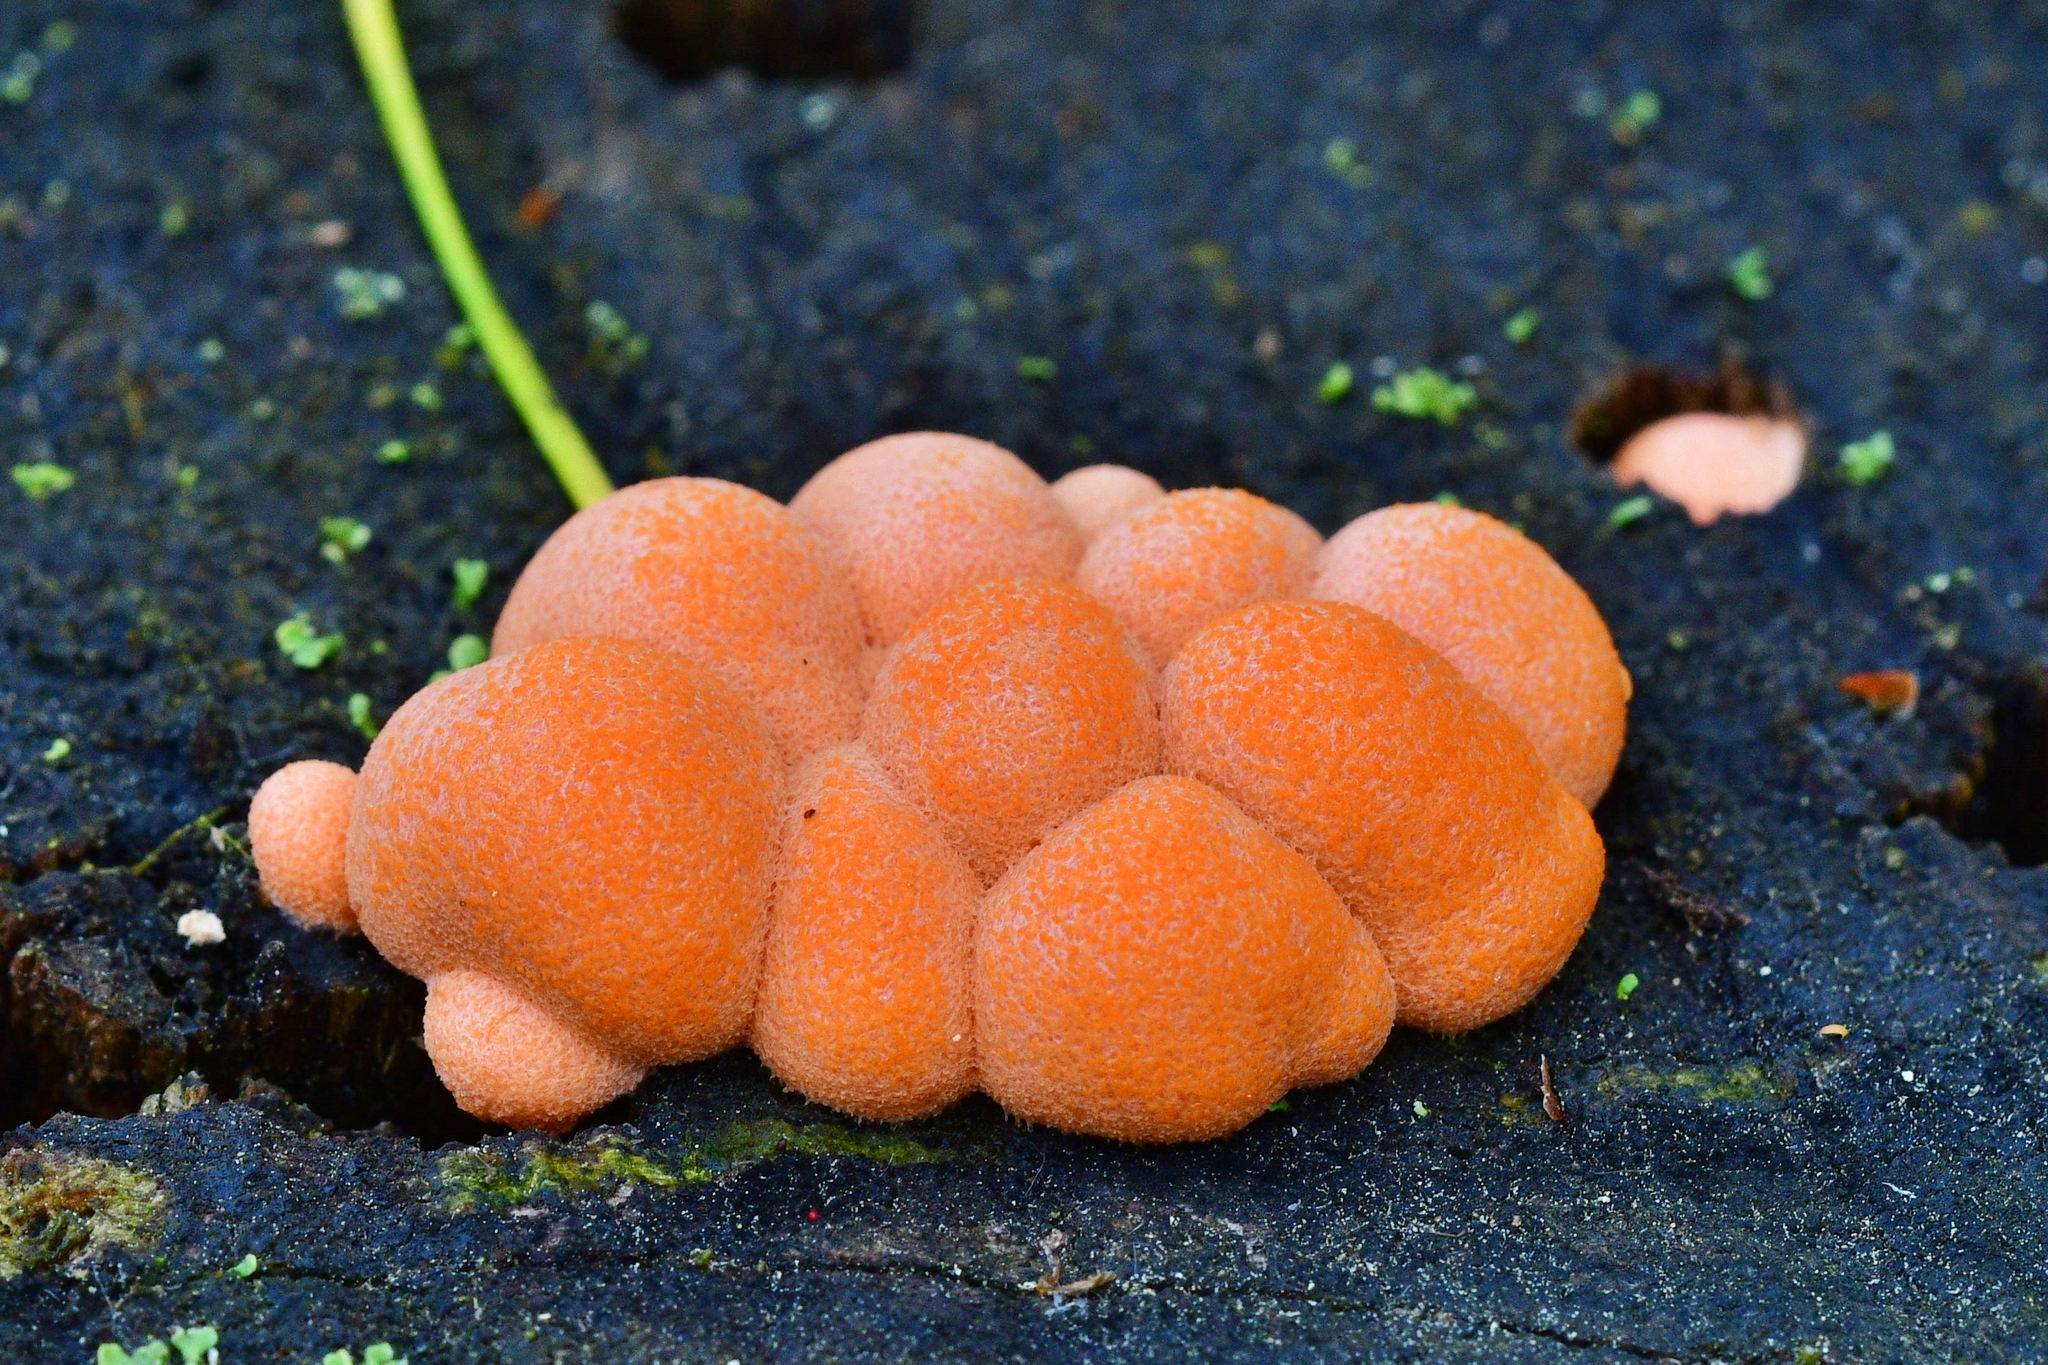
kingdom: Protozoa
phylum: Mycetozoa
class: Myxomycetes
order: Cribrariales
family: Tubiferaceae
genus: Lycogala
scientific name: Lycogala epidendrum
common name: Wolf's milk
